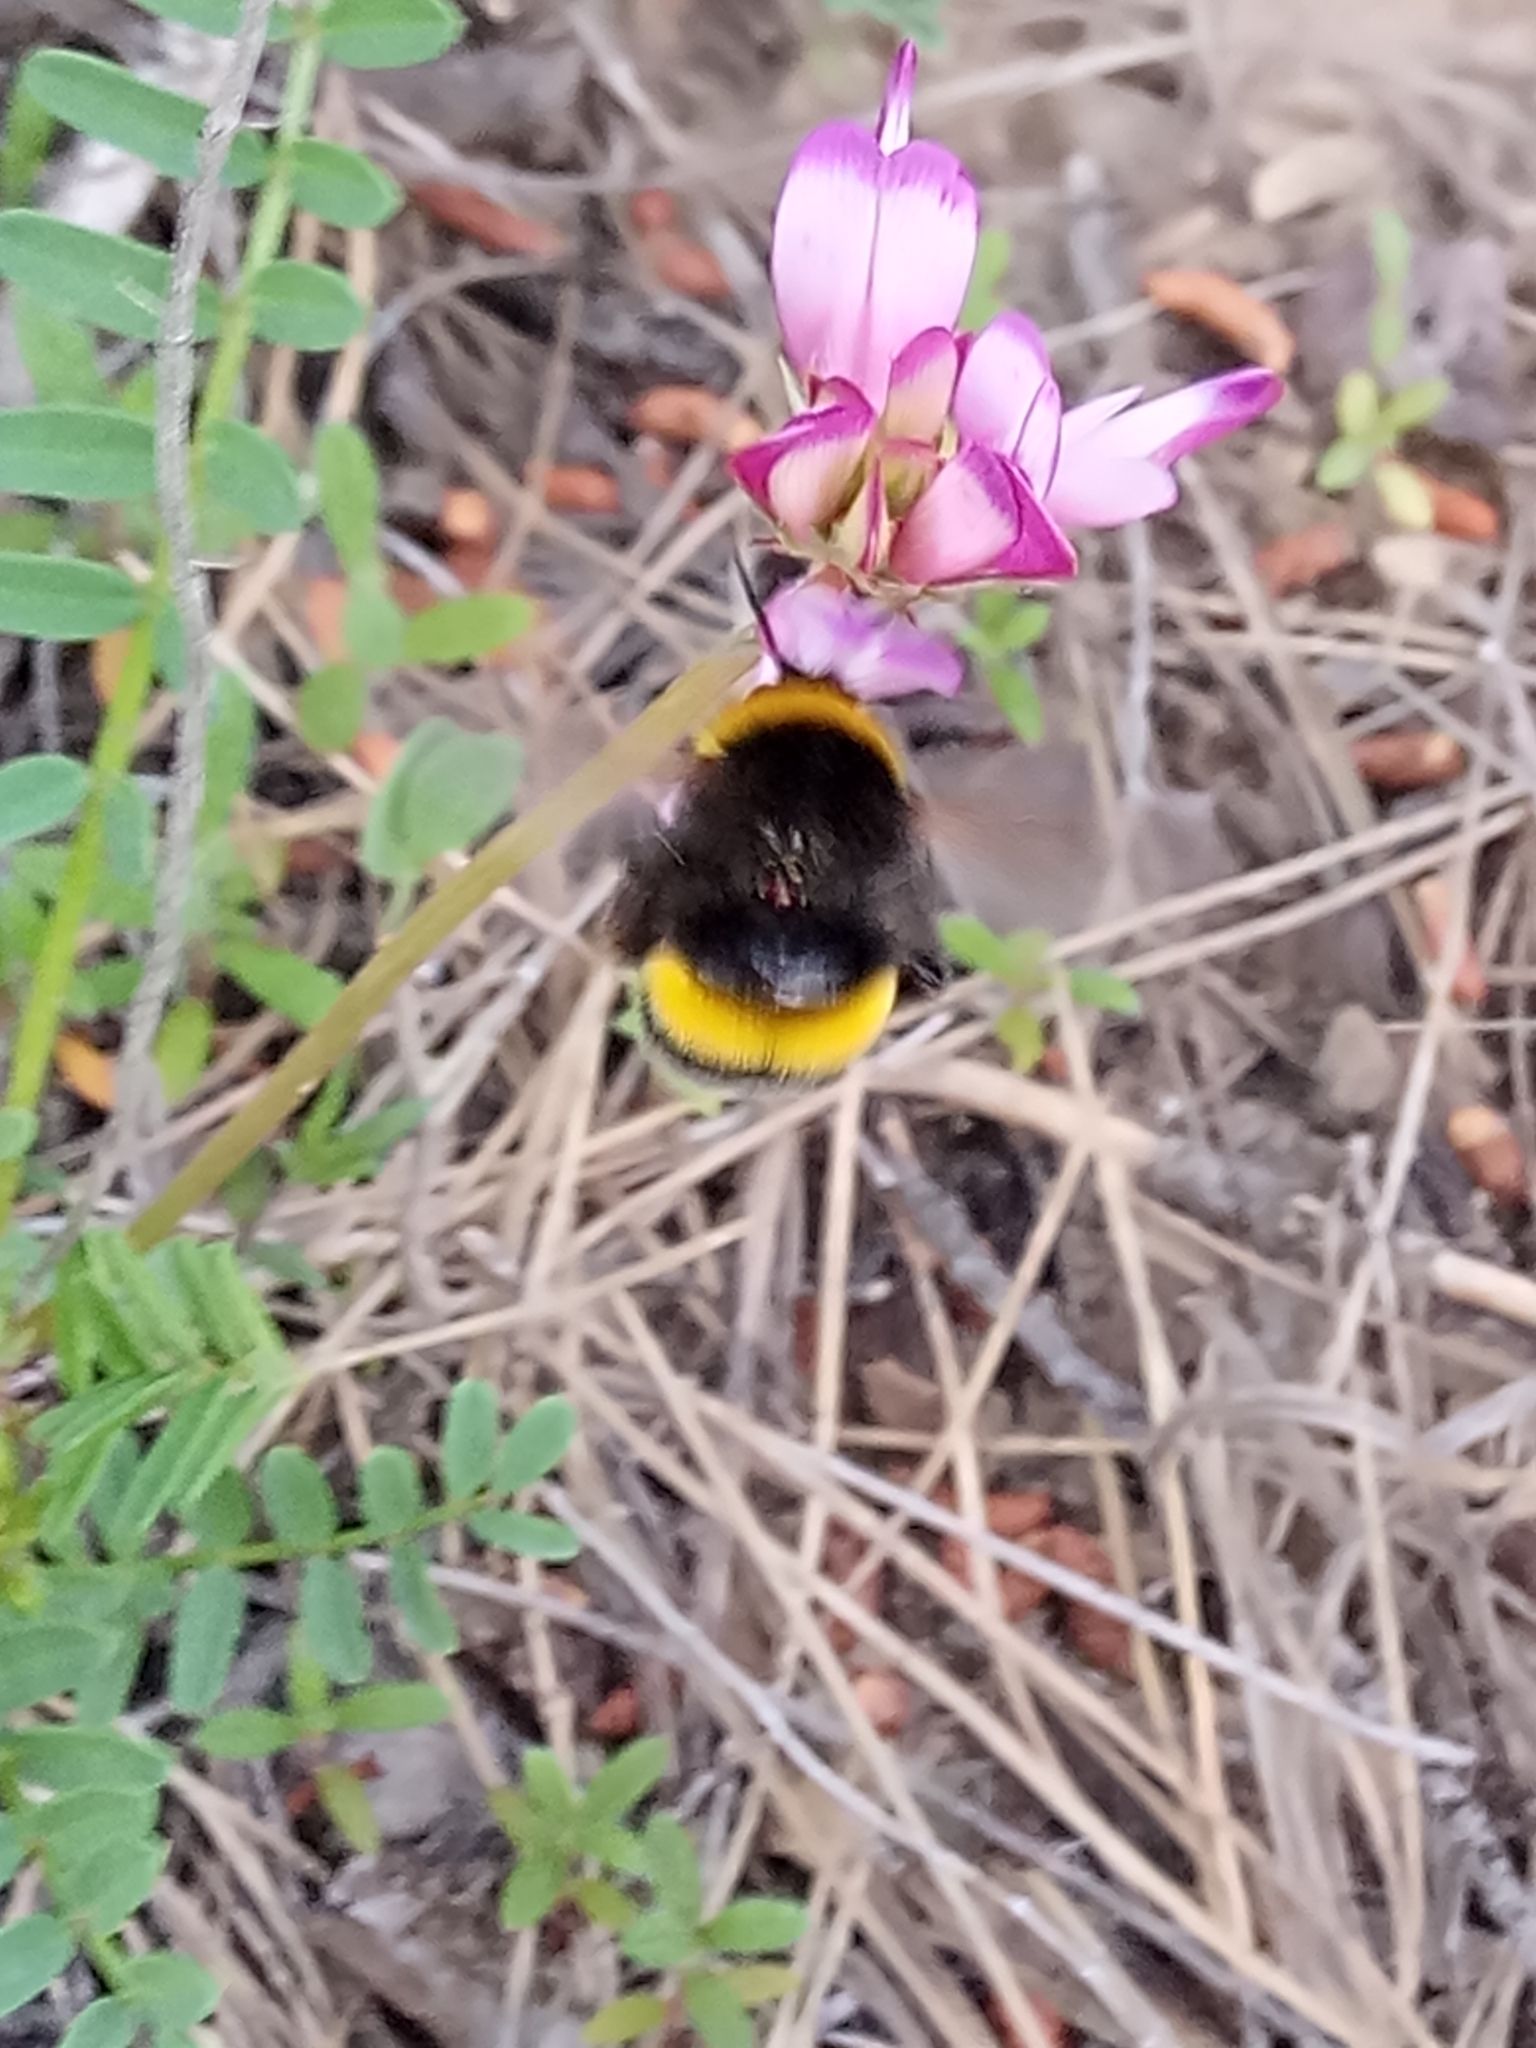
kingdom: Animalia
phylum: Arthropoda
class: Insecta
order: Hymenoptera
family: Apidae
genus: Bombus
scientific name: Bombus terrestris
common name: Buff-tailed bumblebee
